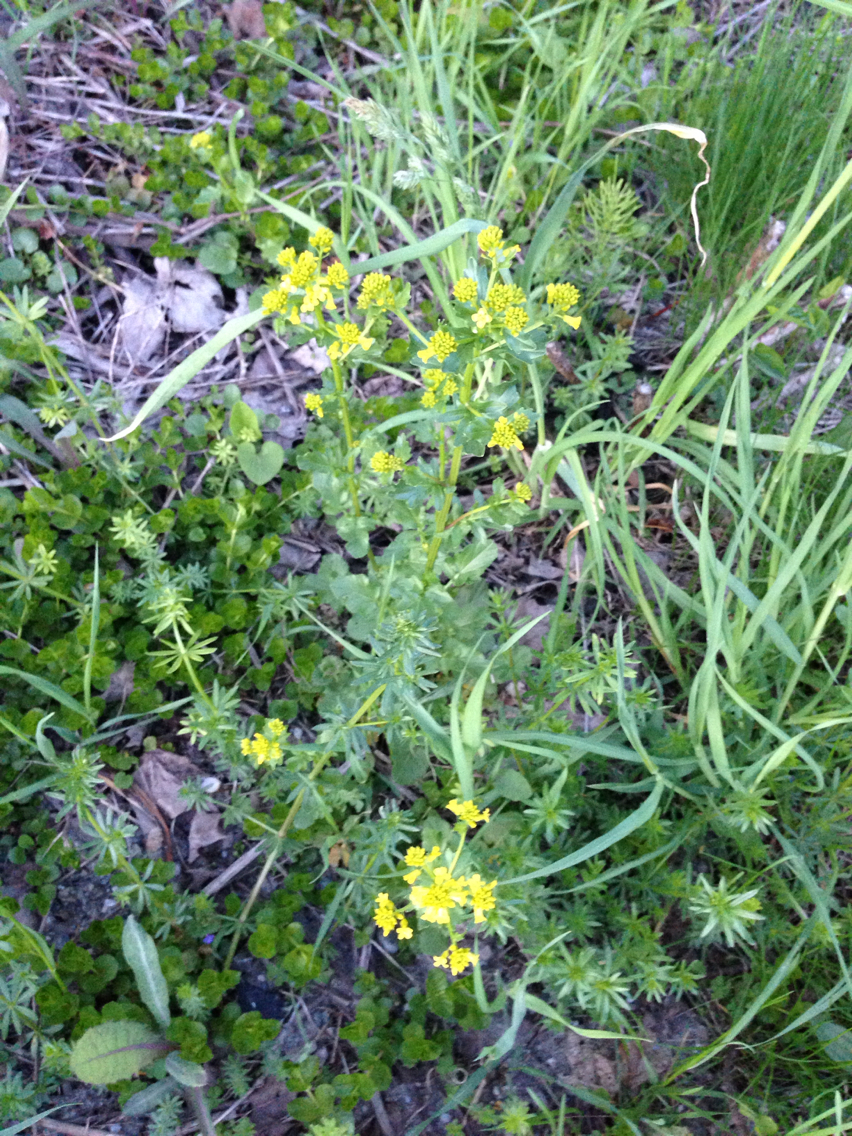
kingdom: Plantae
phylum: Tracheophyta
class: Magnoliopsida
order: Ericales
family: Primulaceae
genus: Lysimachia
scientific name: Lysimachia nummularia
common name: Moneywort
